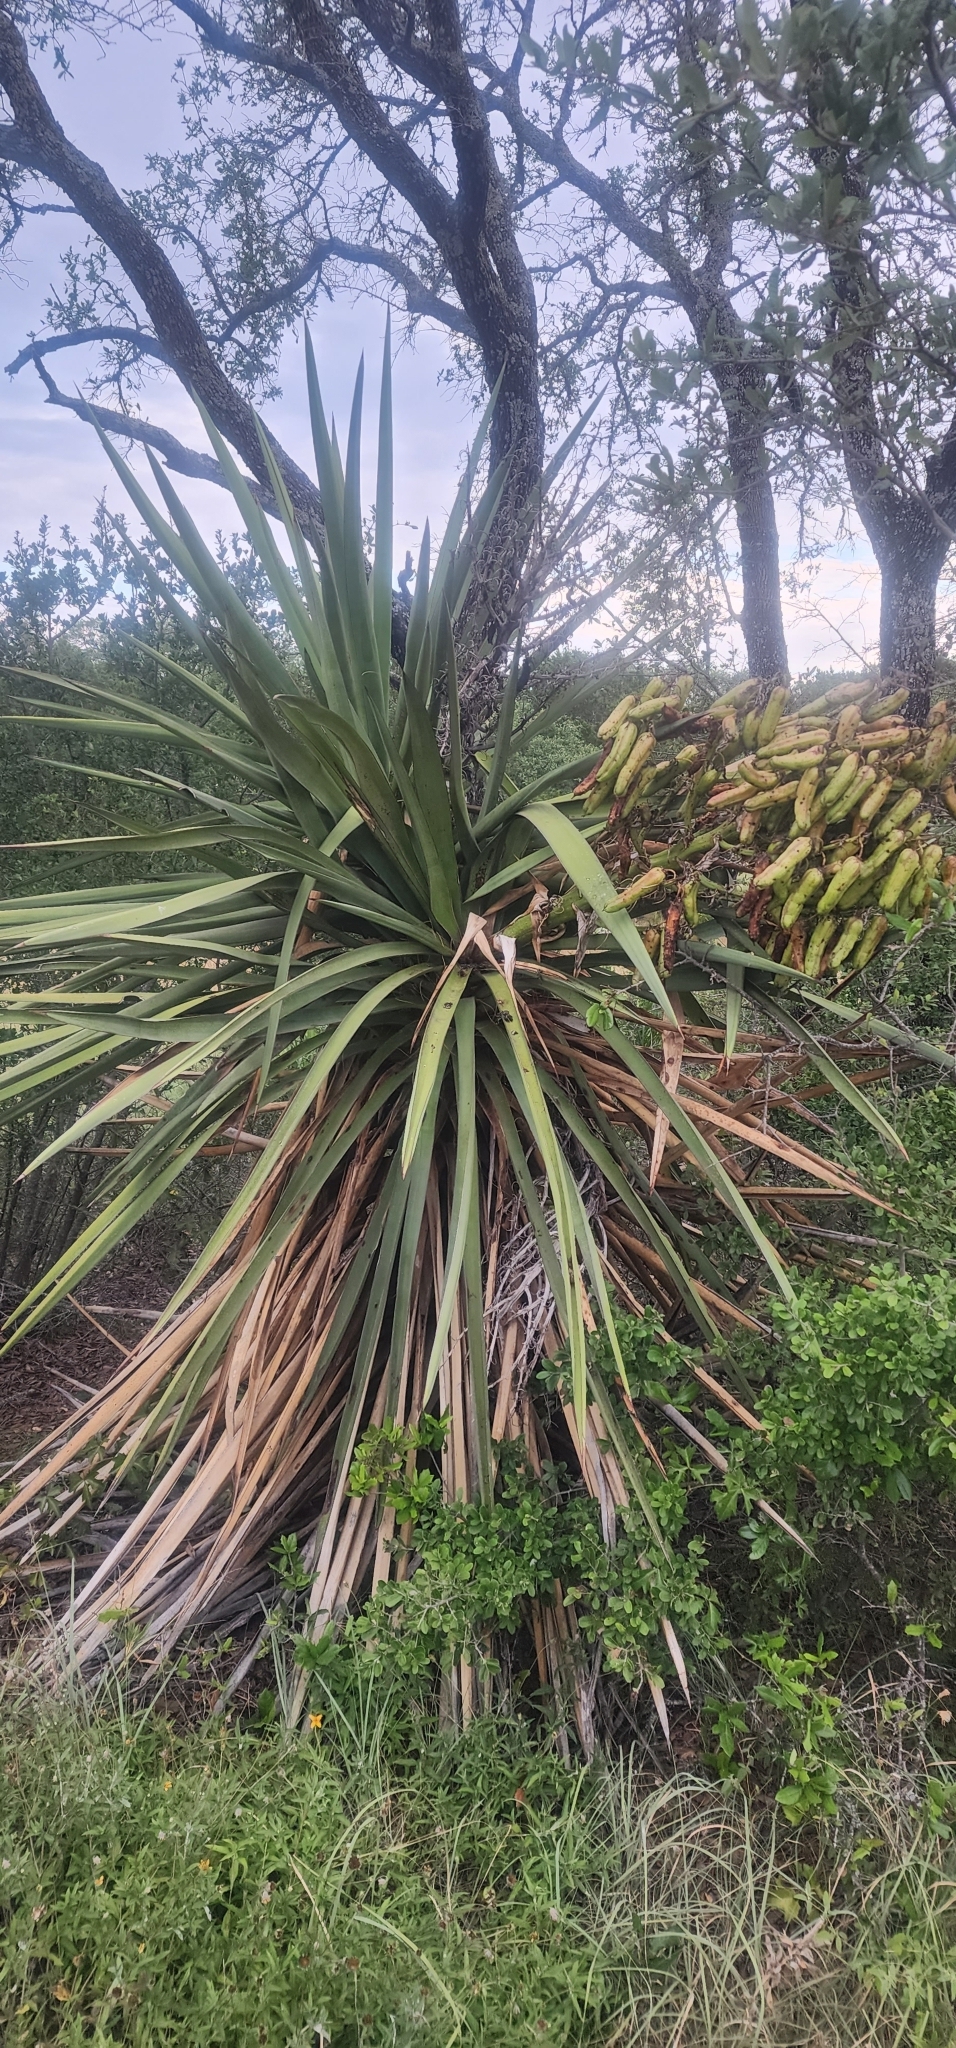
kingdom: Plantae
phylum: Tracheophyta
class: Liliopsida
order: Asparagales
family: Asparagaceae
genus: Yucca
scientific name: Yucca treculiana
